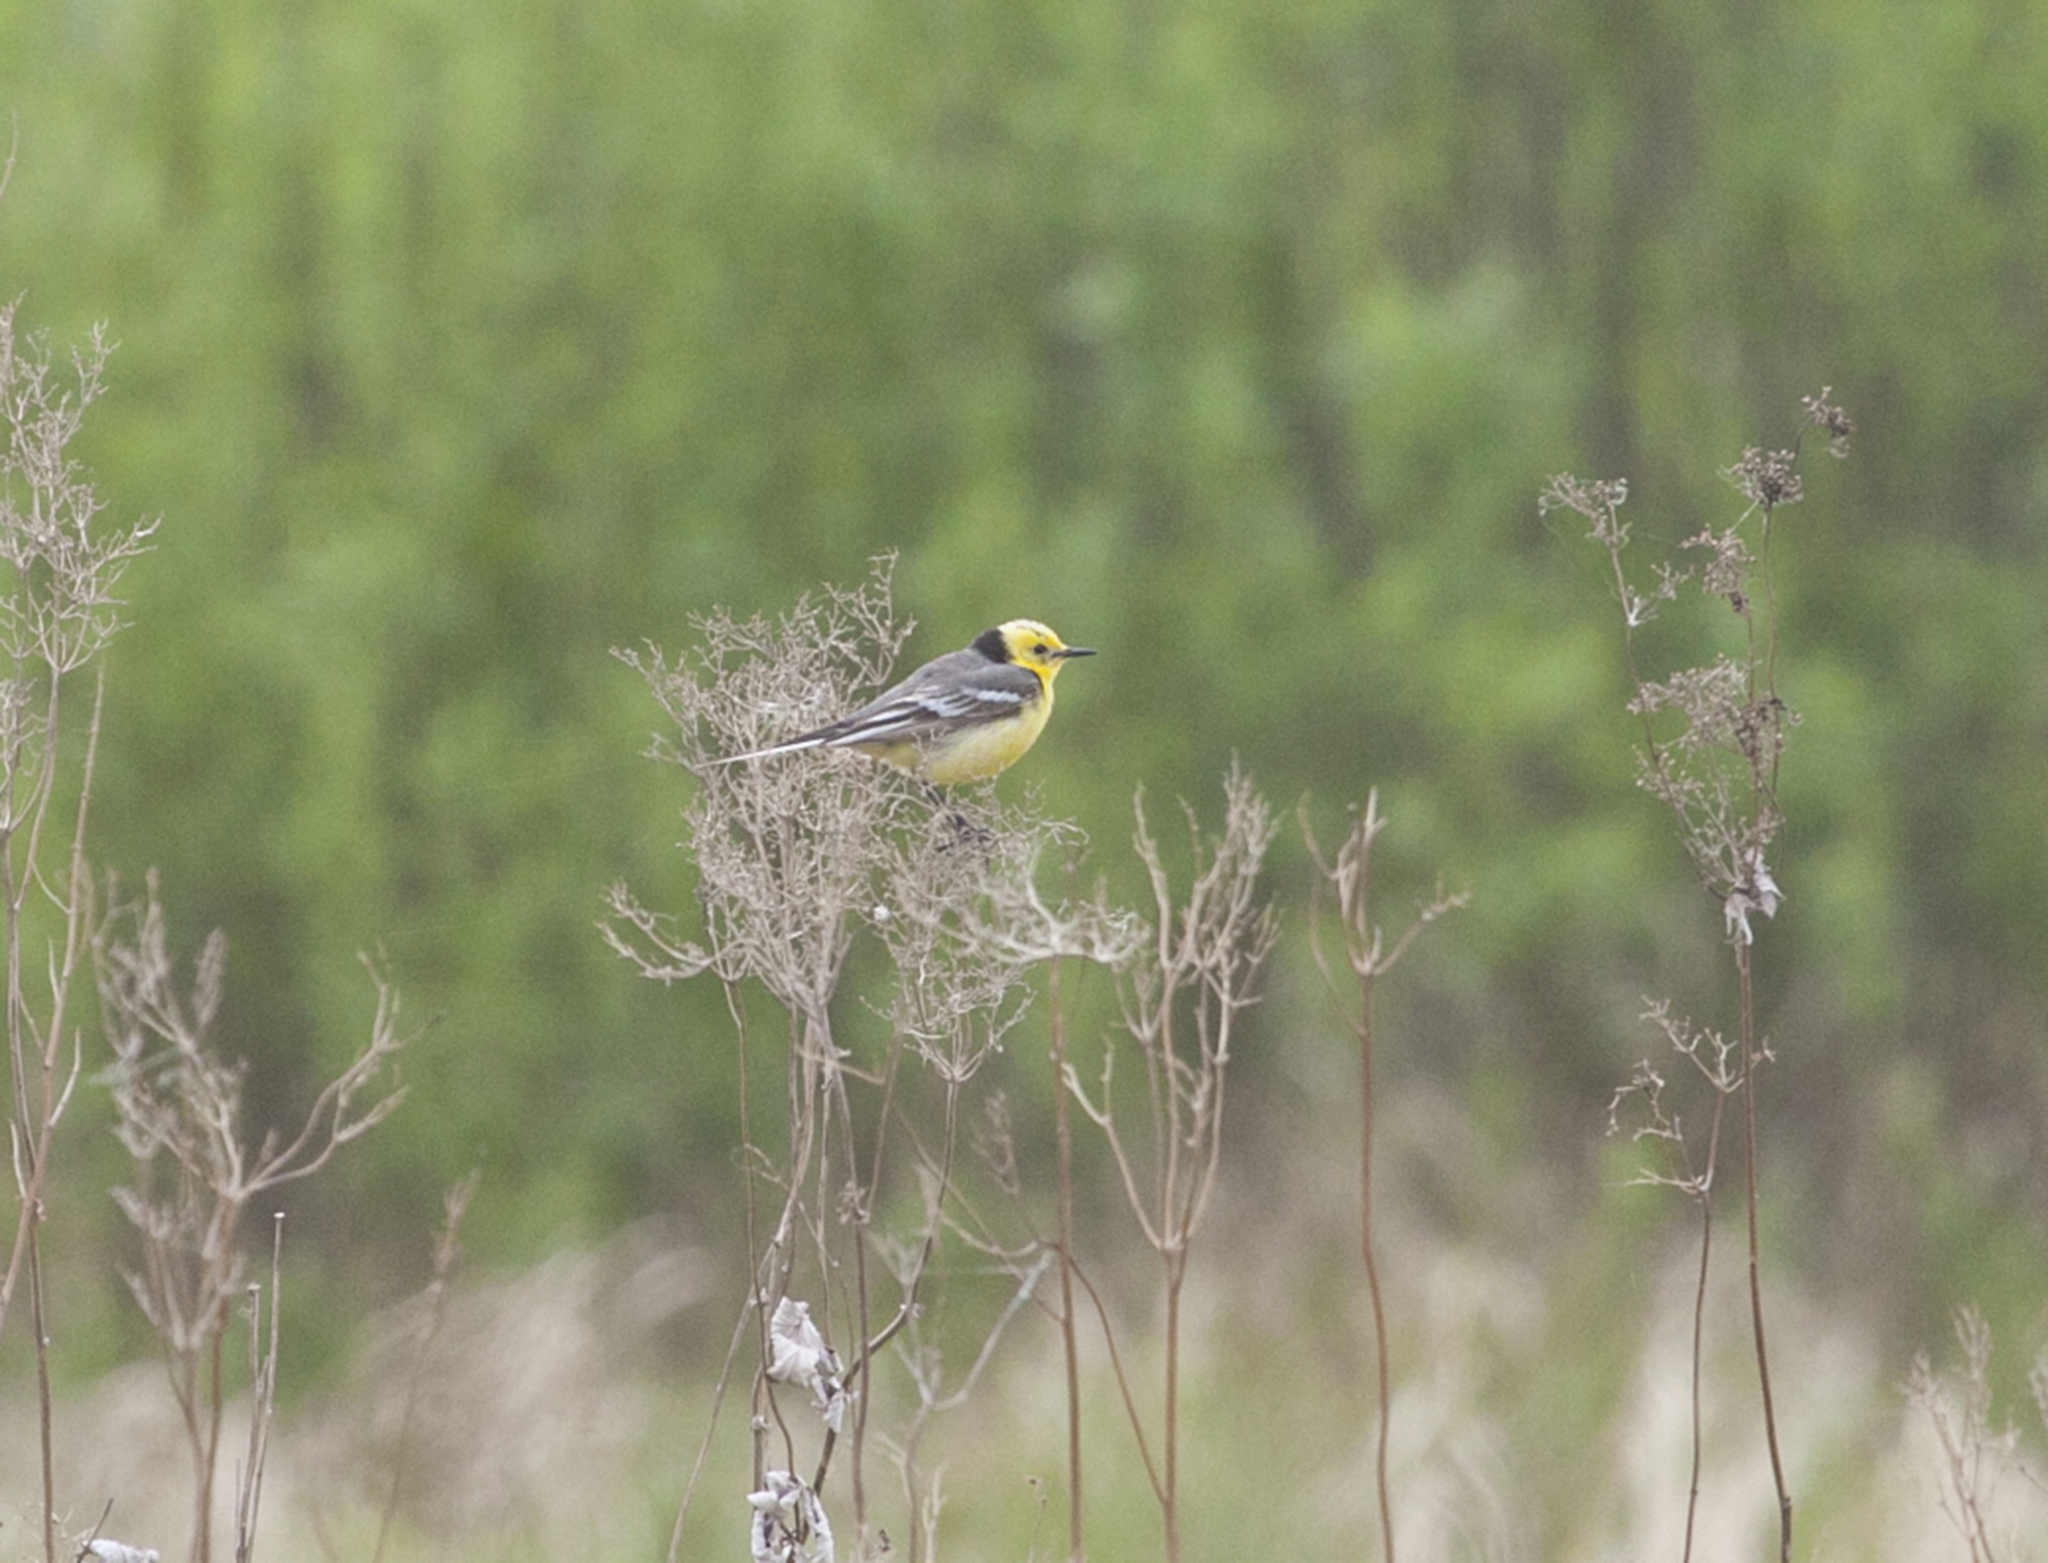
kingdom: Animalia
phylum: Chordata
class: Aves
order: Passeriformes
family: Motacillidae
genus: Motacilla
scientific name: Motacilla citreola
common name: Citrine wagtail
